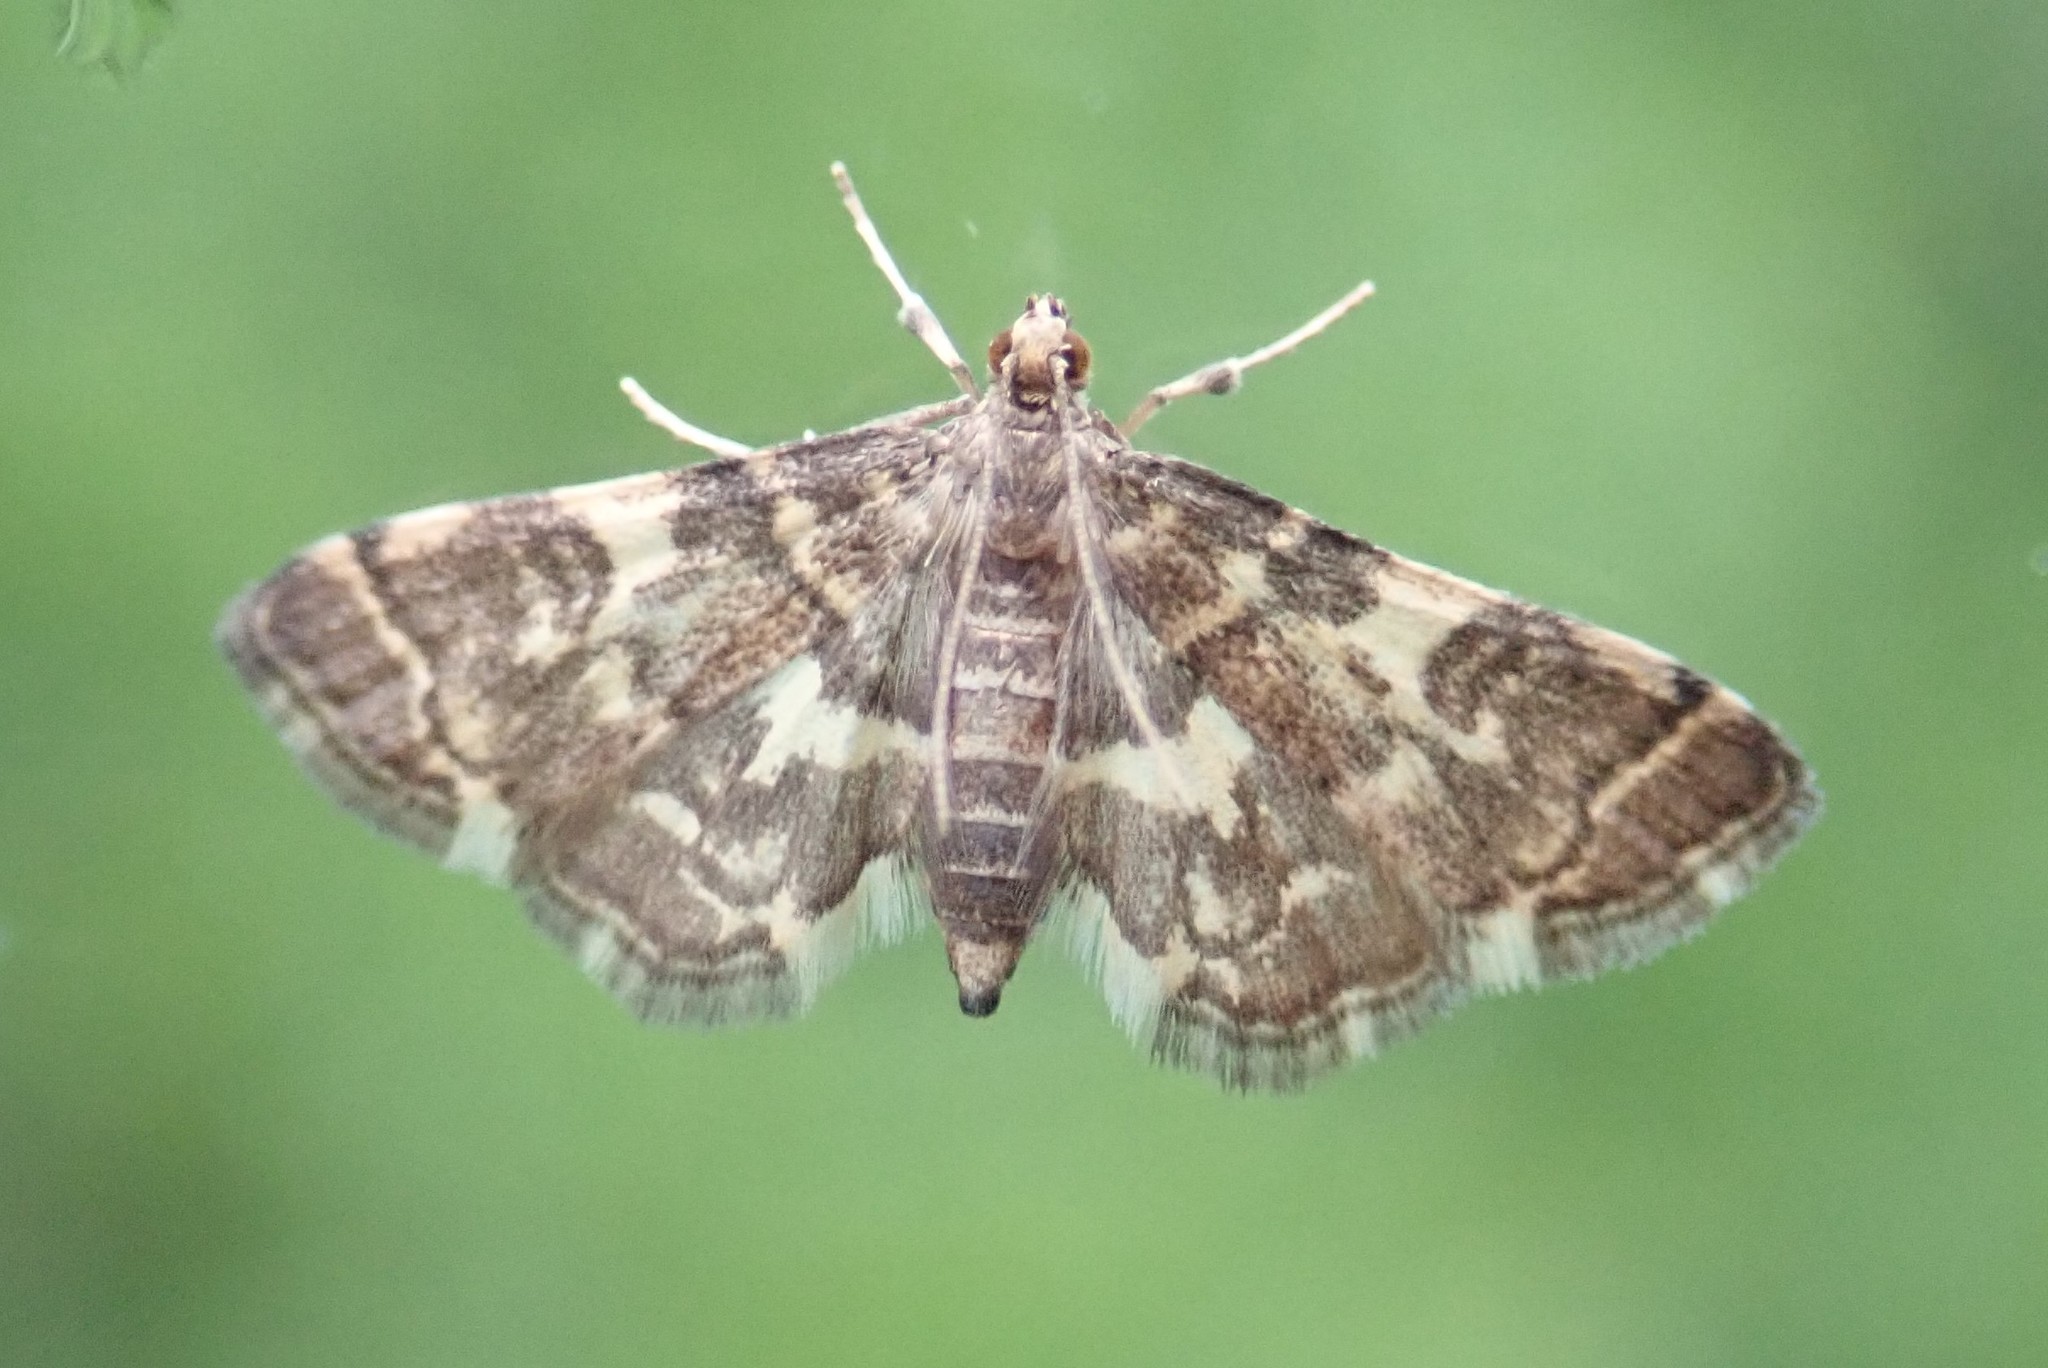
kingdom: Animalia
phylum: Arthropoda
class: Insecta
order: Lepidoptera
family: Crambidae
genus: Anageshna
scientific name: Anageshna primordialis
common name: Yellow-spotted webworm moth
